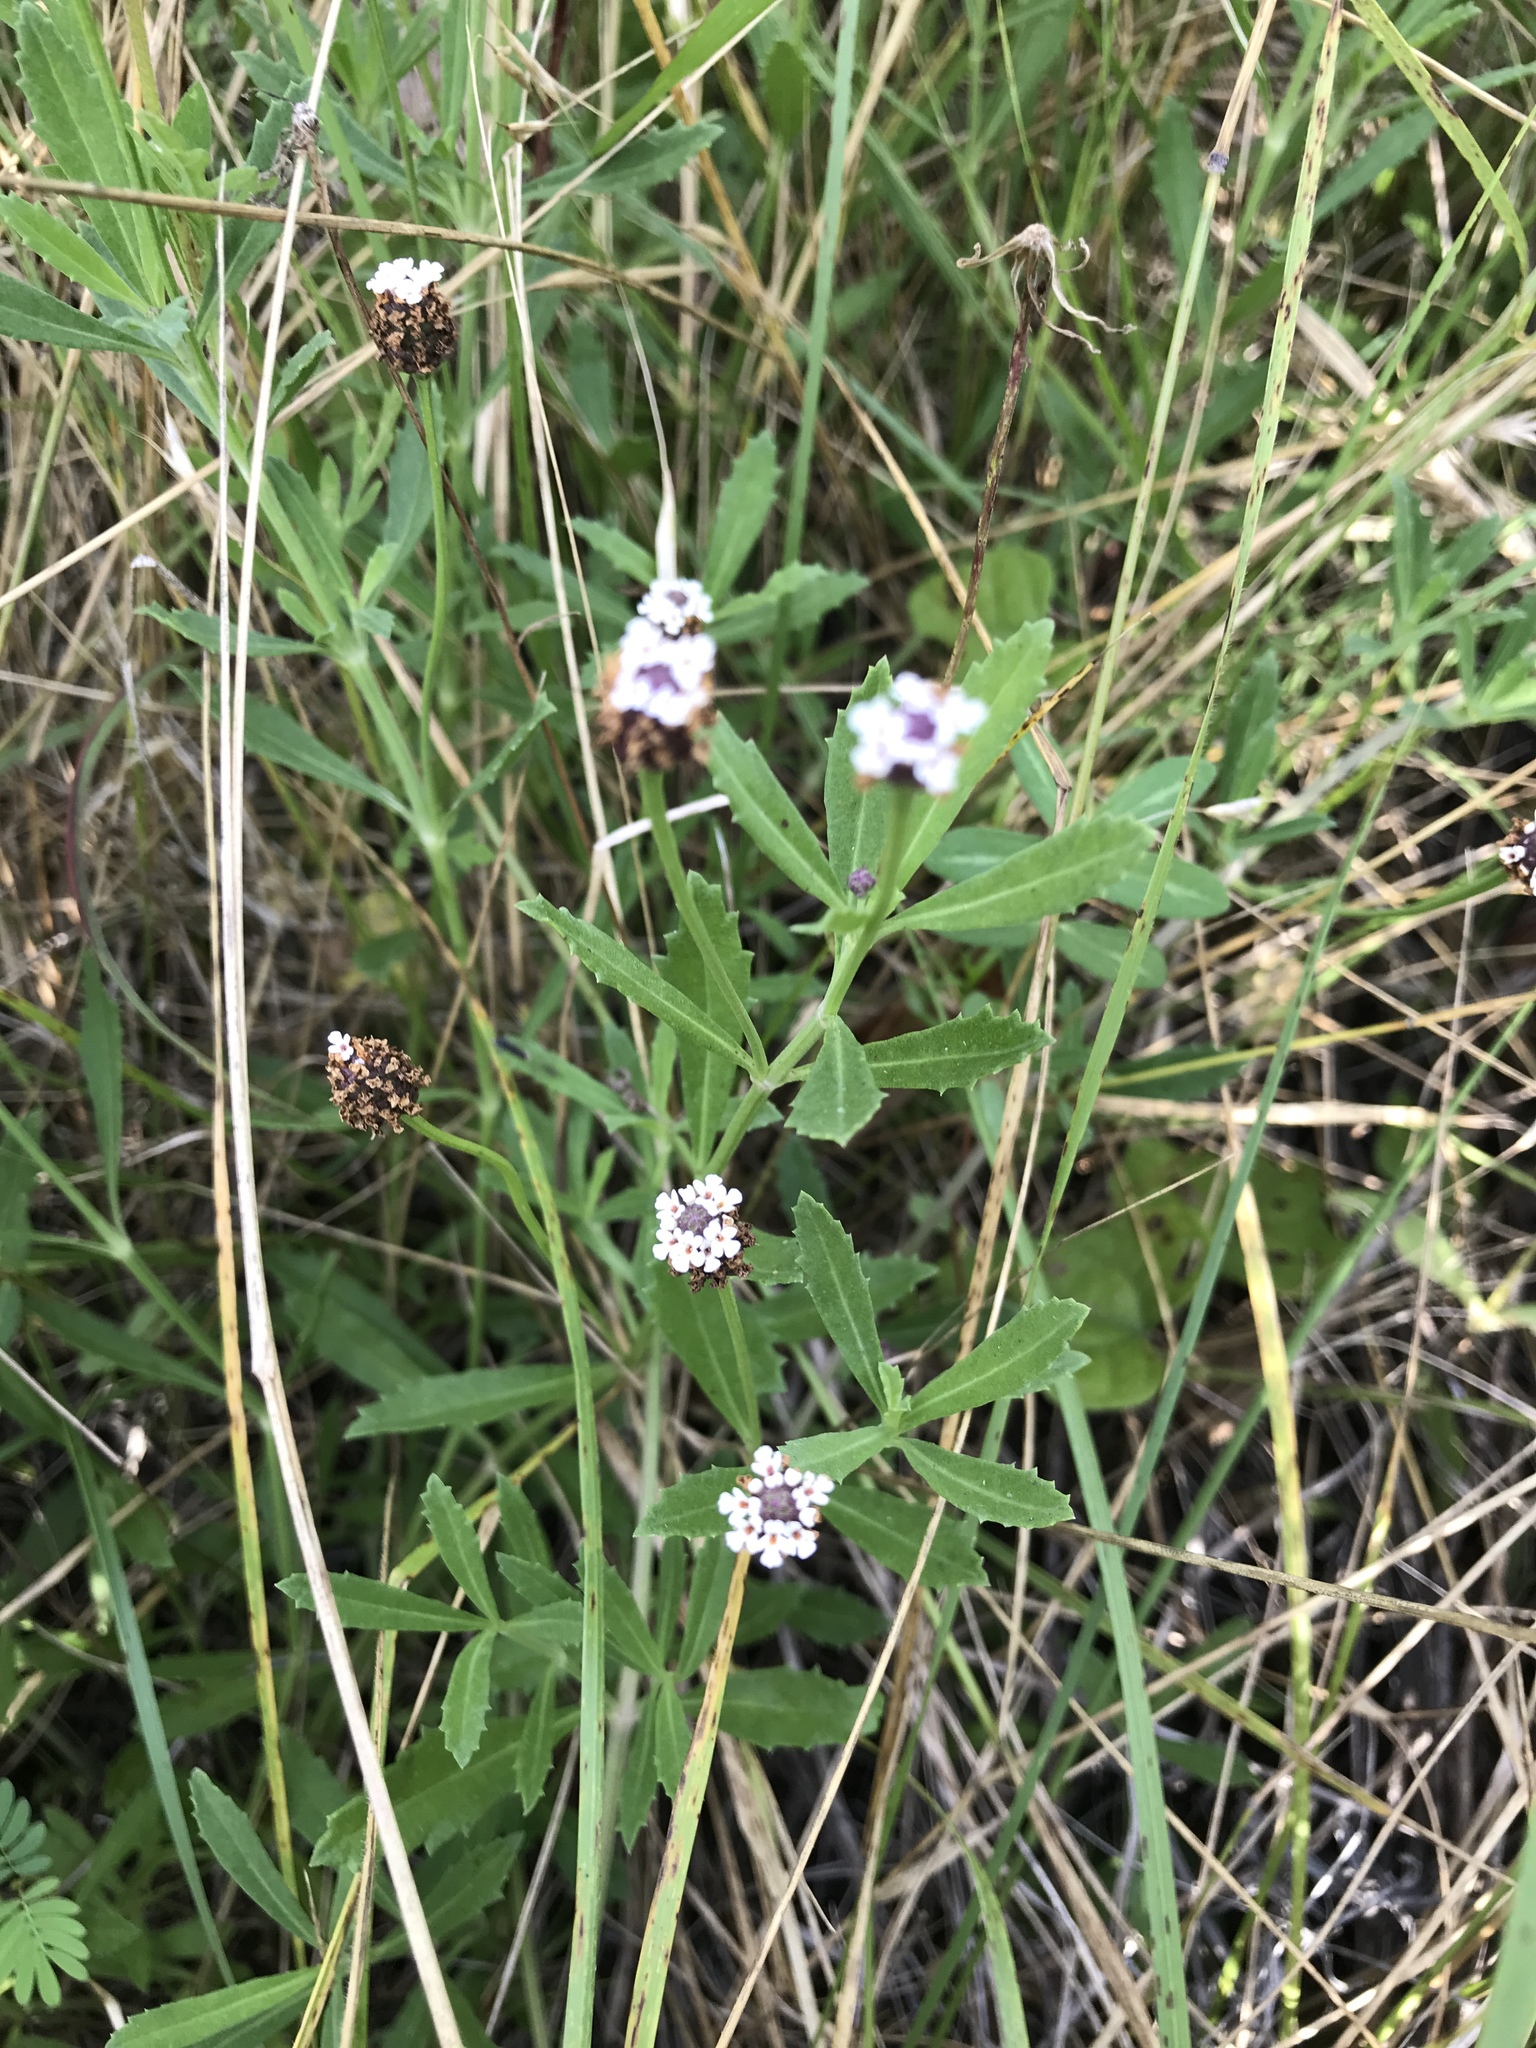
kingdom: Plantae
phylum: Tracheophyta
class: Magnoliopsida
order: Lamiales
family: Verbenaceae
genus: Phyla
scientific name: Phyla nodiflora
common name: Frogfruit
